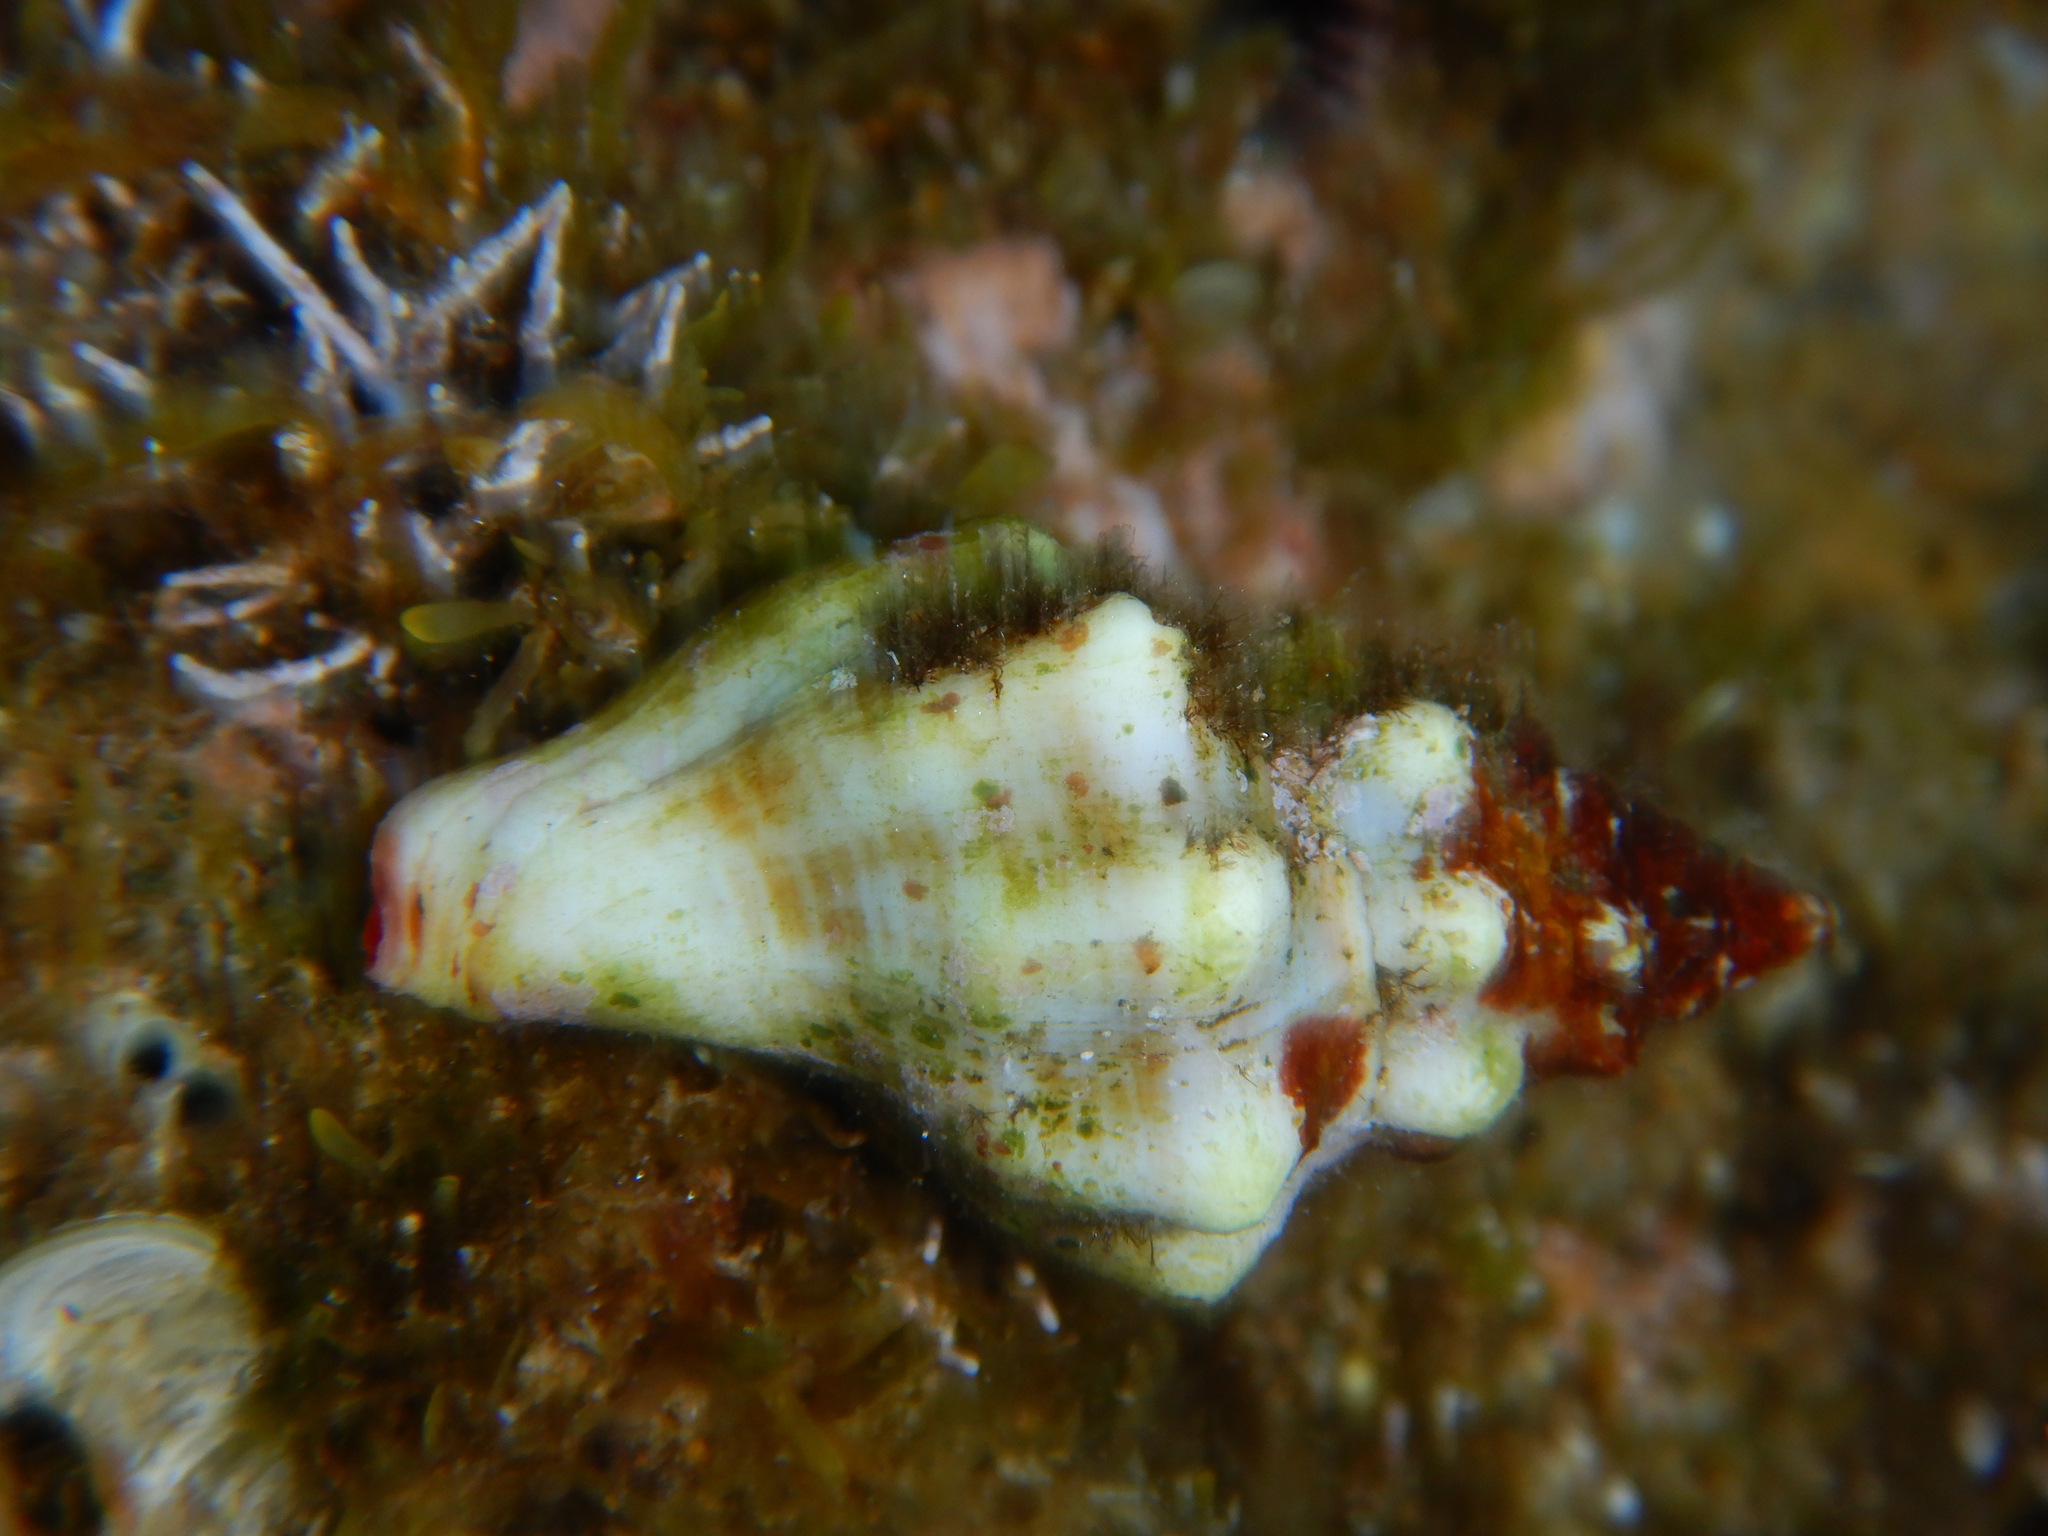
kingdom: Animalia
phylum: Mollusca
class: Gastropoda
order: Neogastropoda
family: Fasciolariidae
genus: Tarantinaea
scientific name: Tarantinaea lignaria
